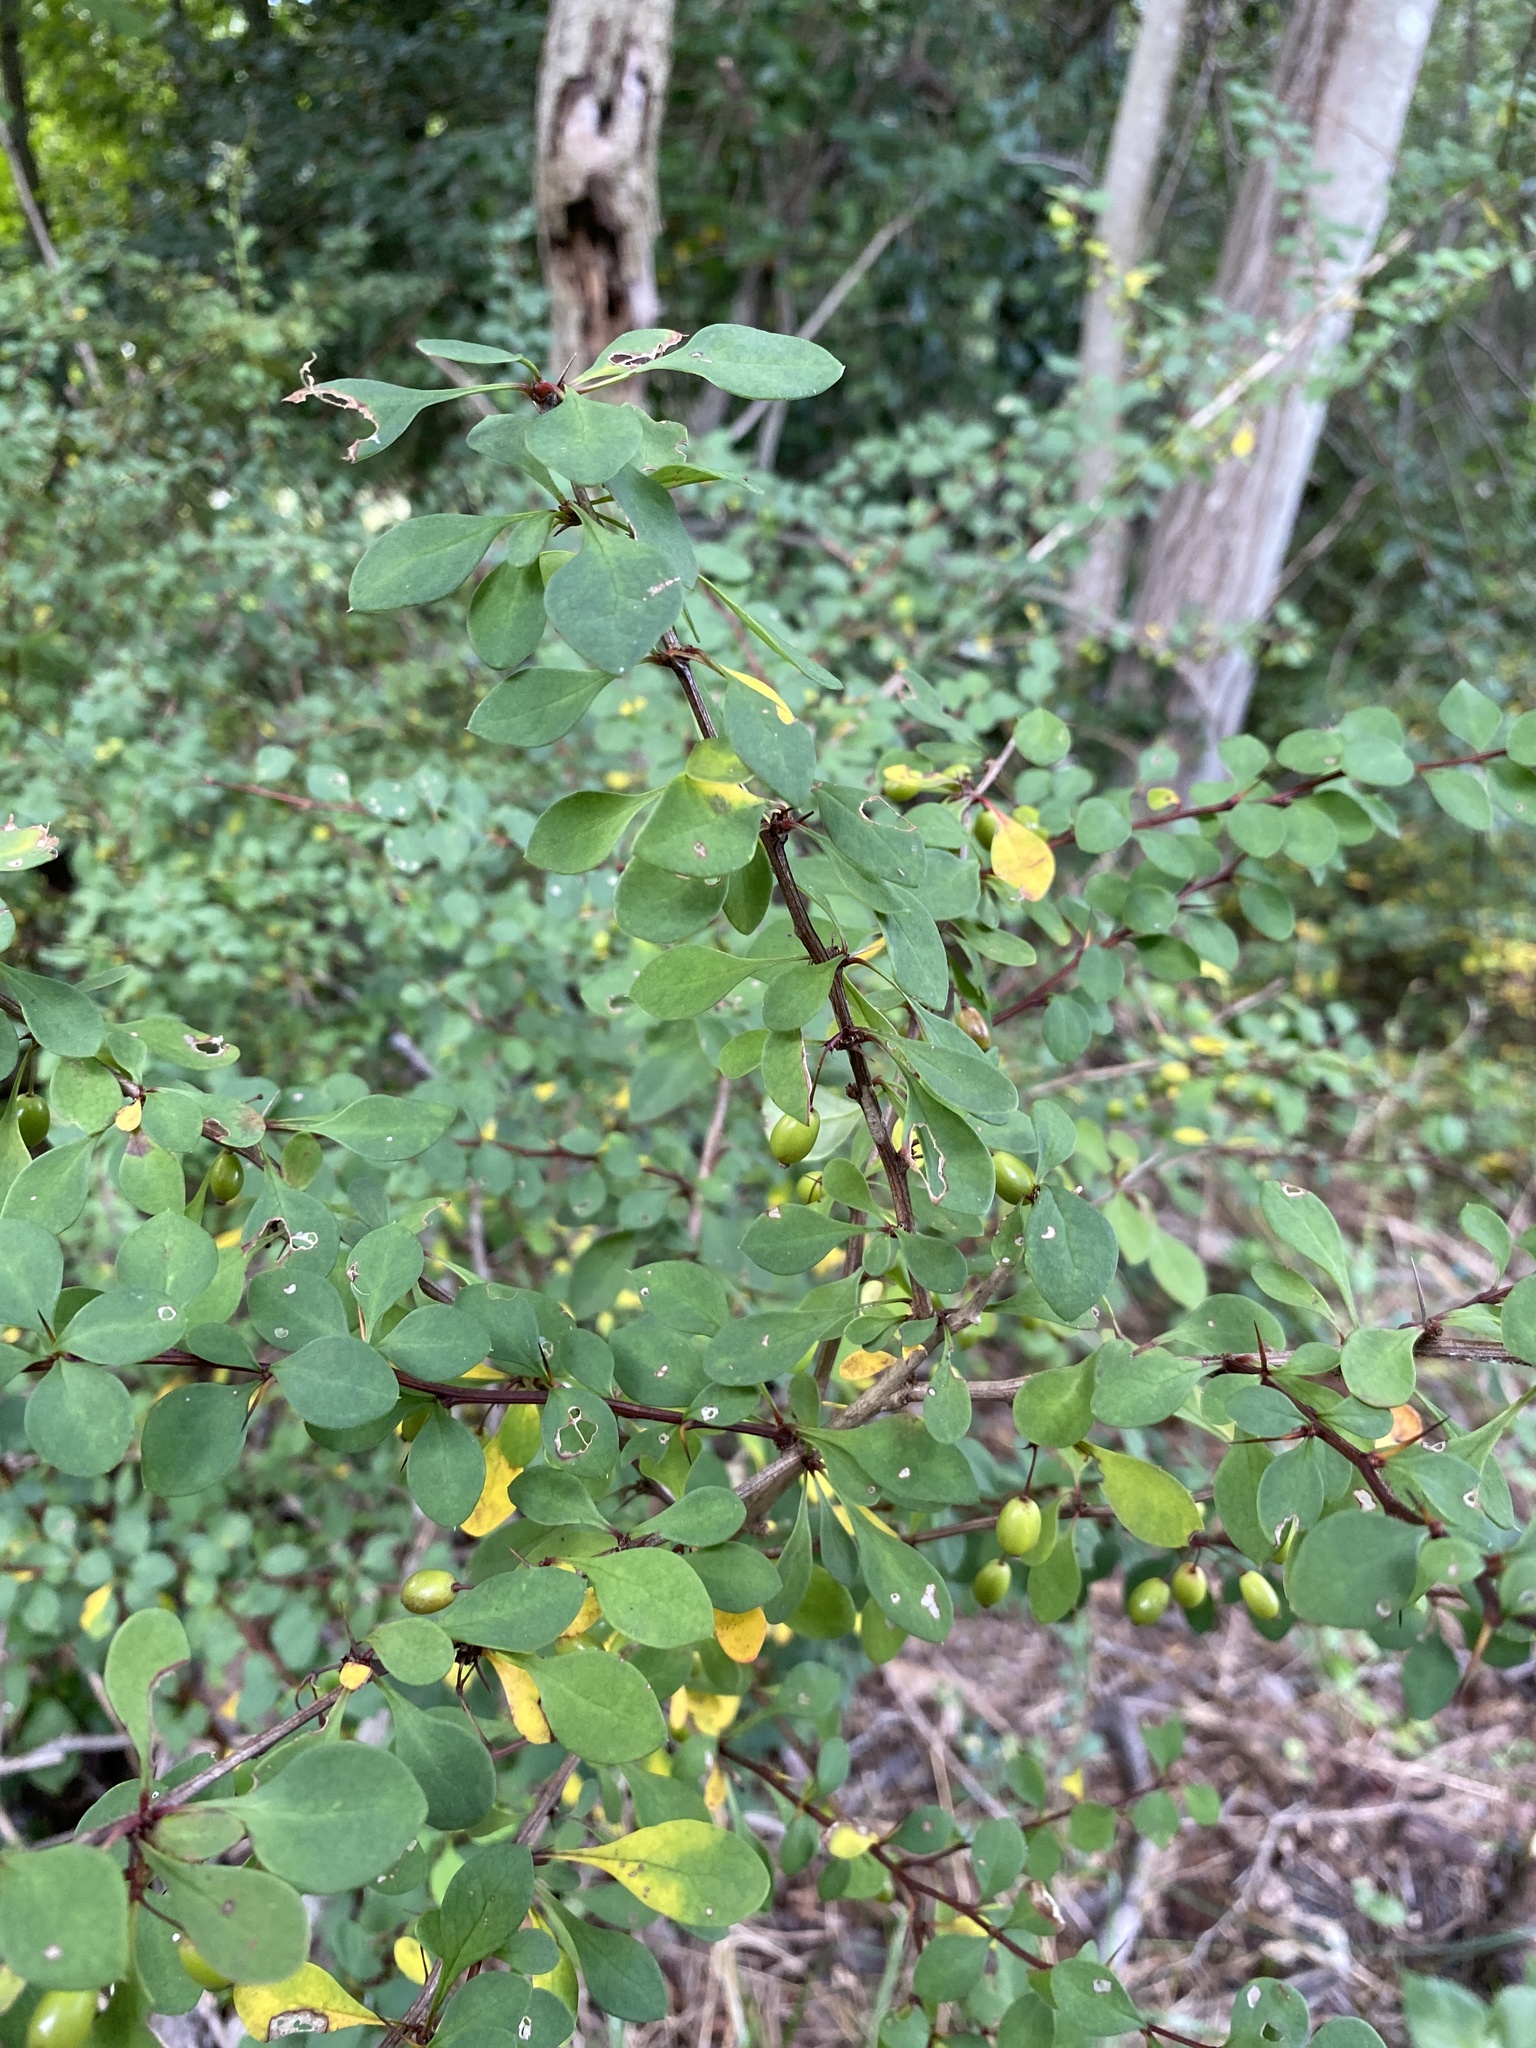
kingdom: Plantae
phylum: Tracheophyta
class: Magnoliopsida
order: Ranunculales
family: Berberidaceae
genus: Berberis
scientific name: Berberis thunbergii
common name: Japanese barberry
